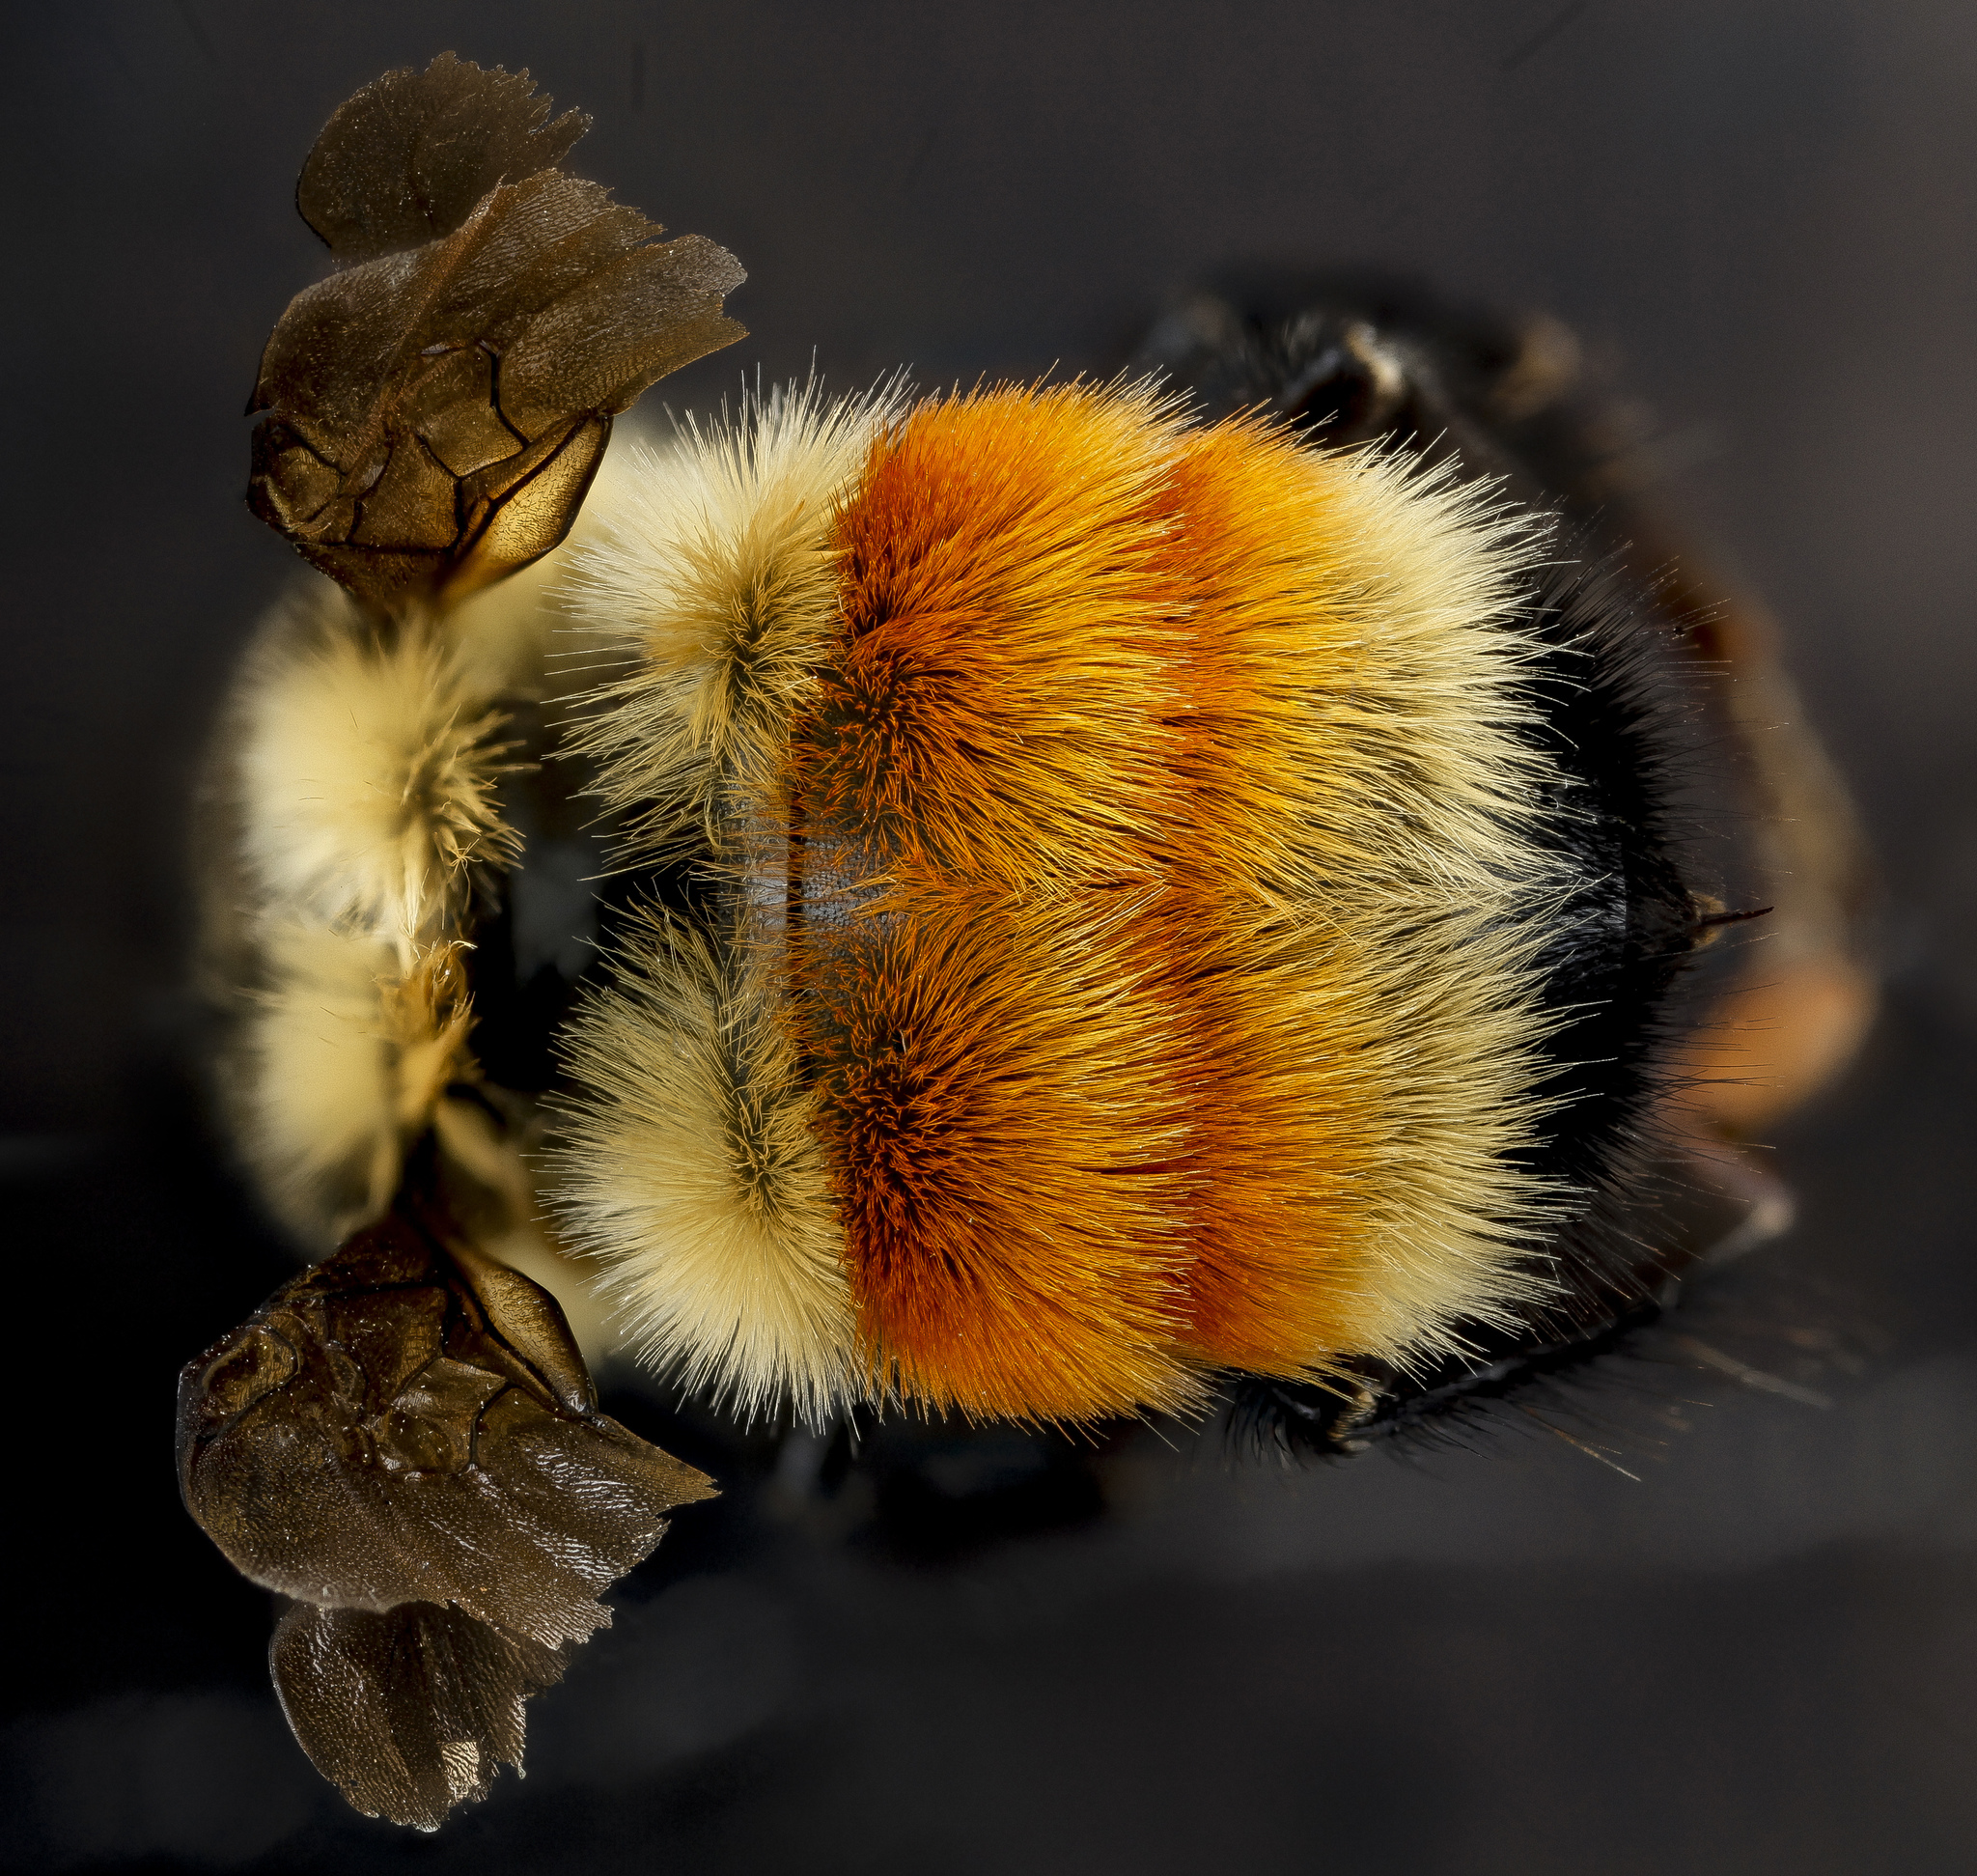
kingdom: Animalia
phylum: Arthropoda
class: Insecta
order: Hymenoptera
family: Apidae
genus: Bombus
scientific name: Bombus huntii
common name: Hunt bumble bee
